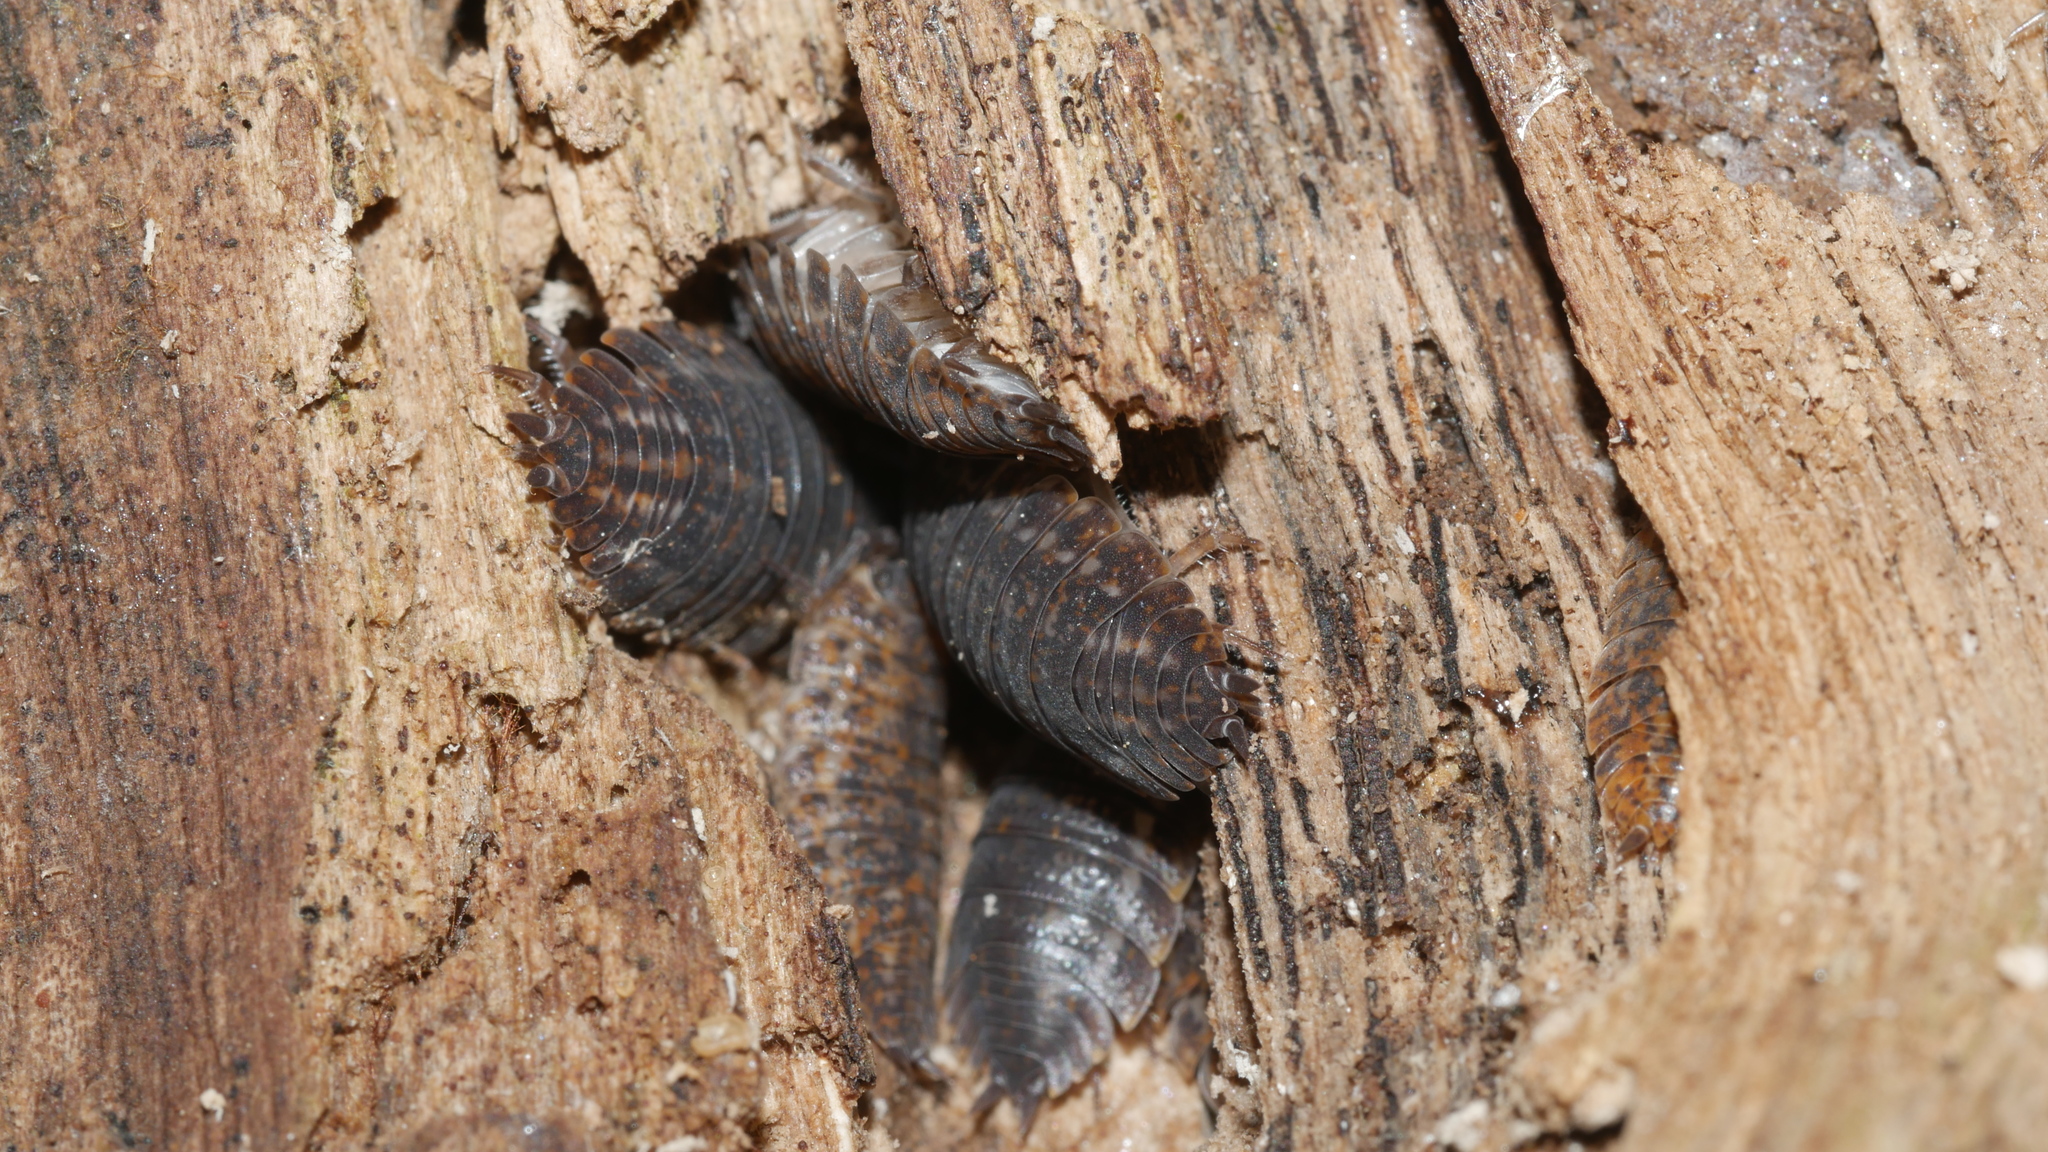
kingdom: Animalia
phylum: Arthropoda
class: Malacostraca
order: Isopoda
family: Trachelipodidae
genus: Trachelipus
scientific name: Trachelipus rathkii
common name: Isopod
